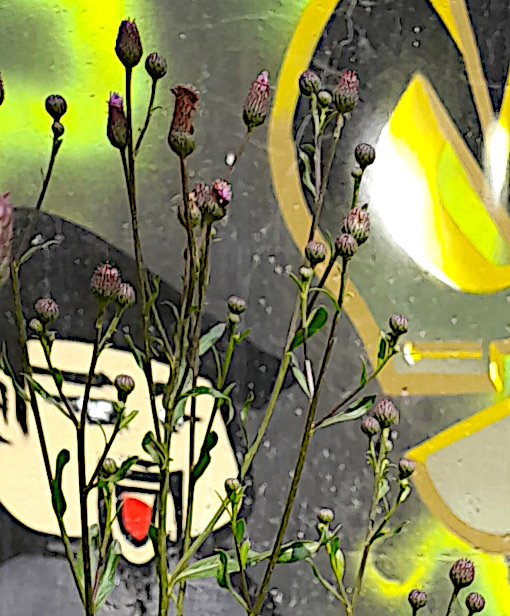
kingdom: Plantae
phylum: Tracheophyta
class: Magnoliopsida
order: Asterales
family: Asteraceae
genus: Cirsium
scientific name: Cirsium arvense
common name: Creeping thistle
